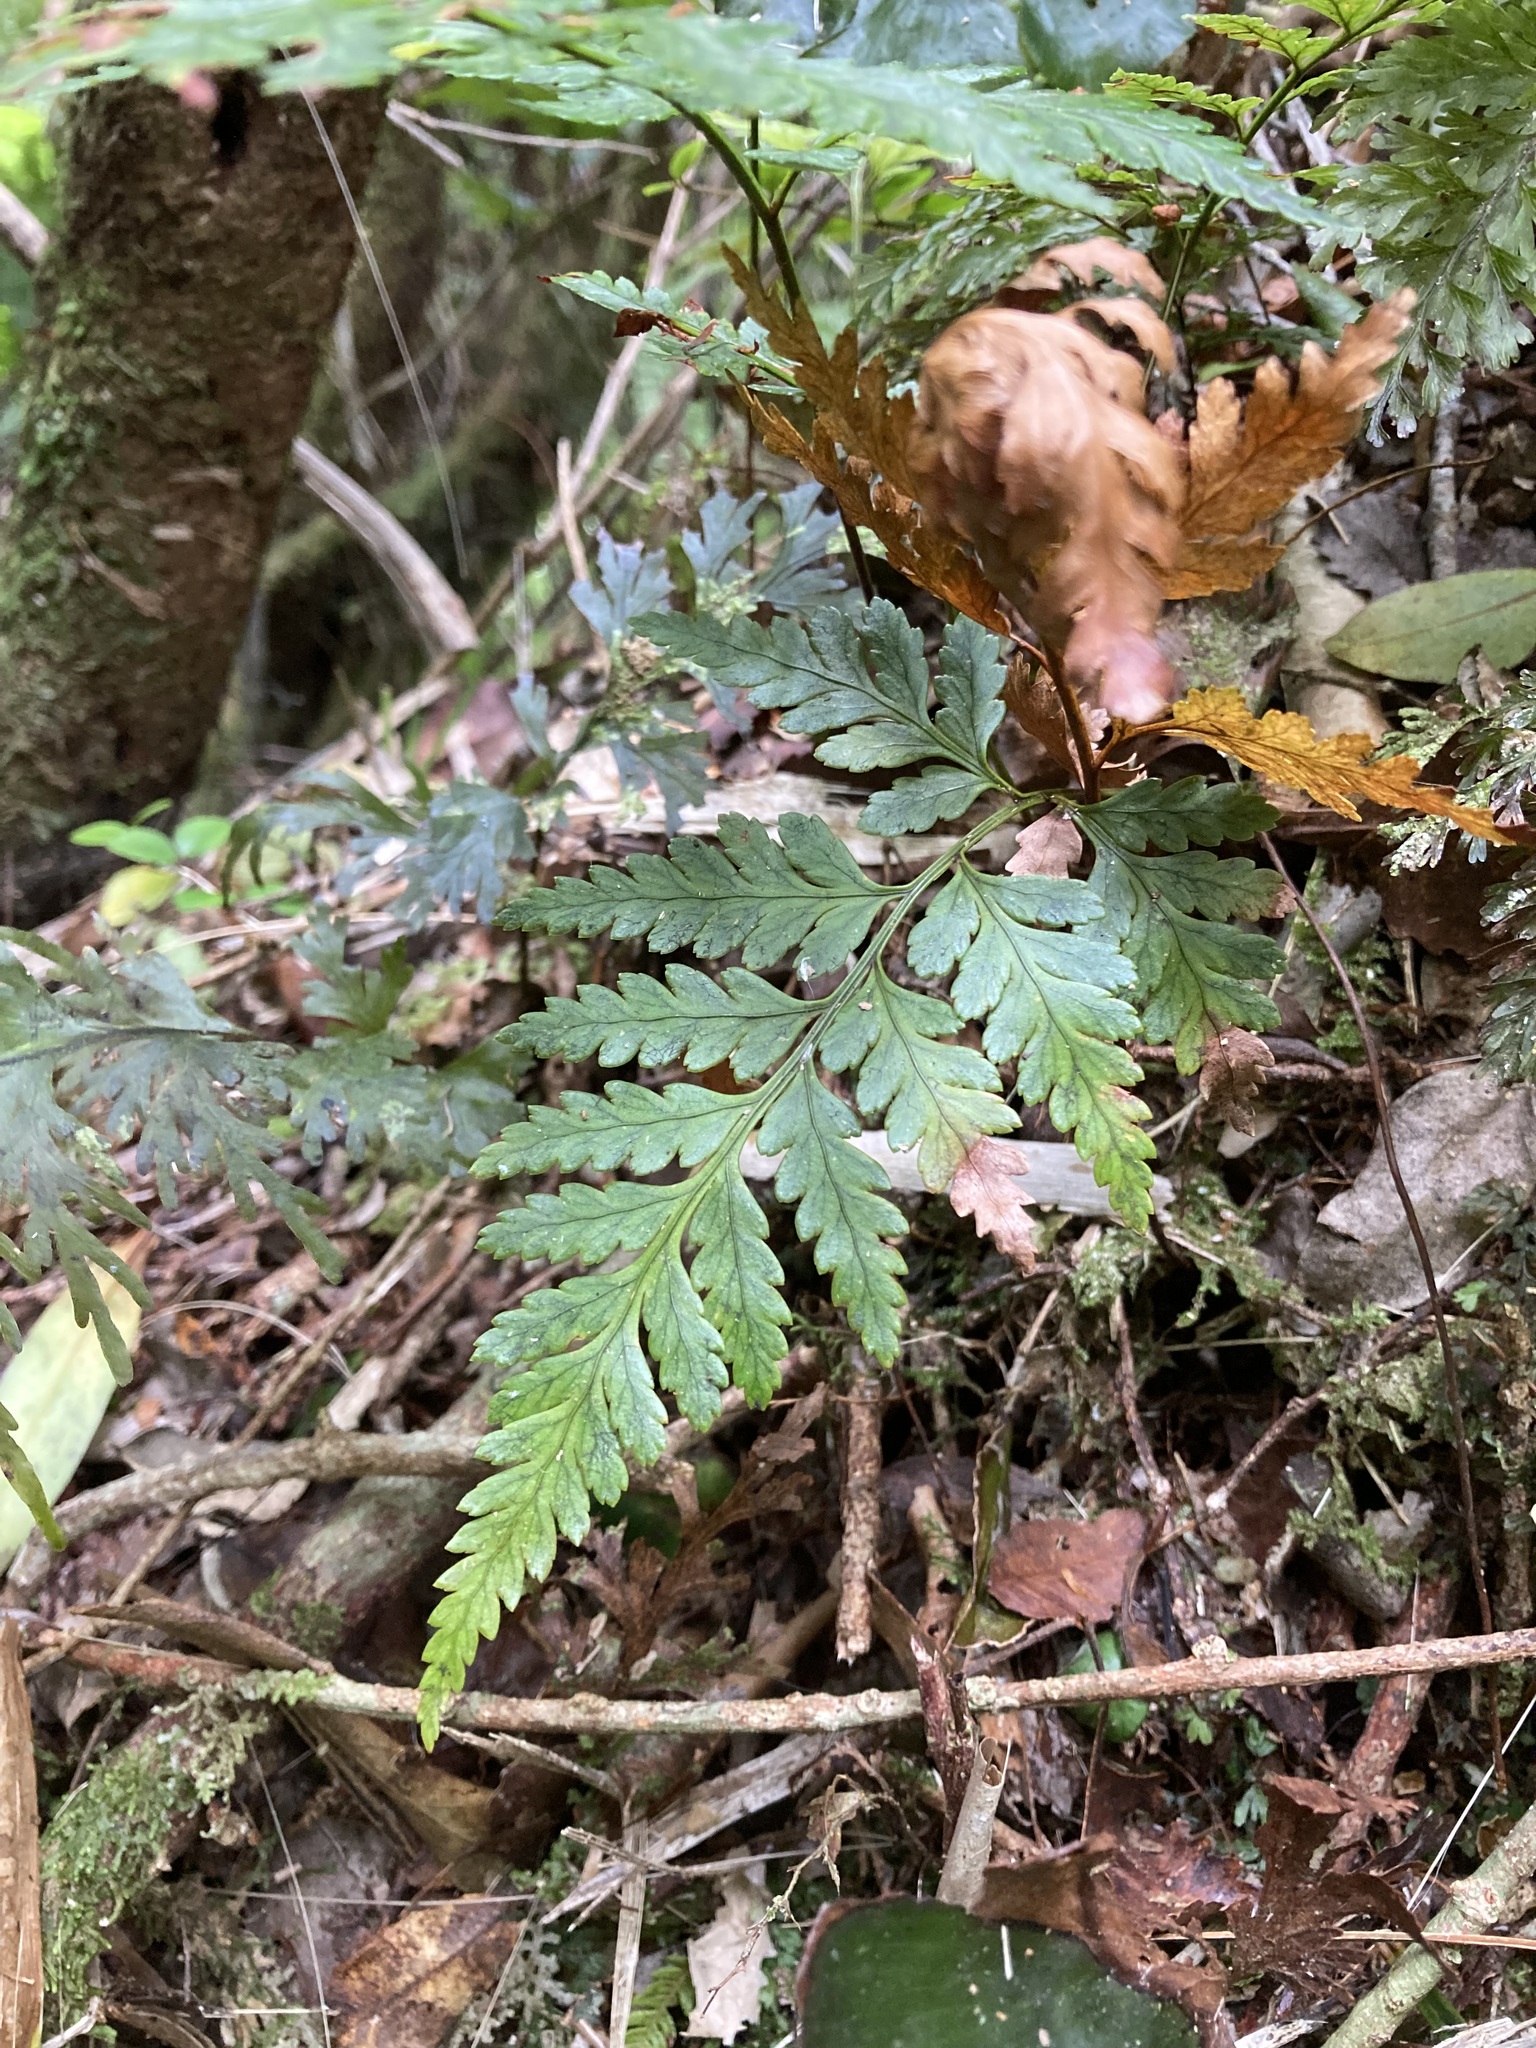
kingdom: Plantae
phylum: Tracheophyta
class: Polypodiopsida
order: Polypodiales
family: Dryopteridaceae
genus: Rumohra
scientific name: Rumohra adiantiformis
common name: Leather fern
